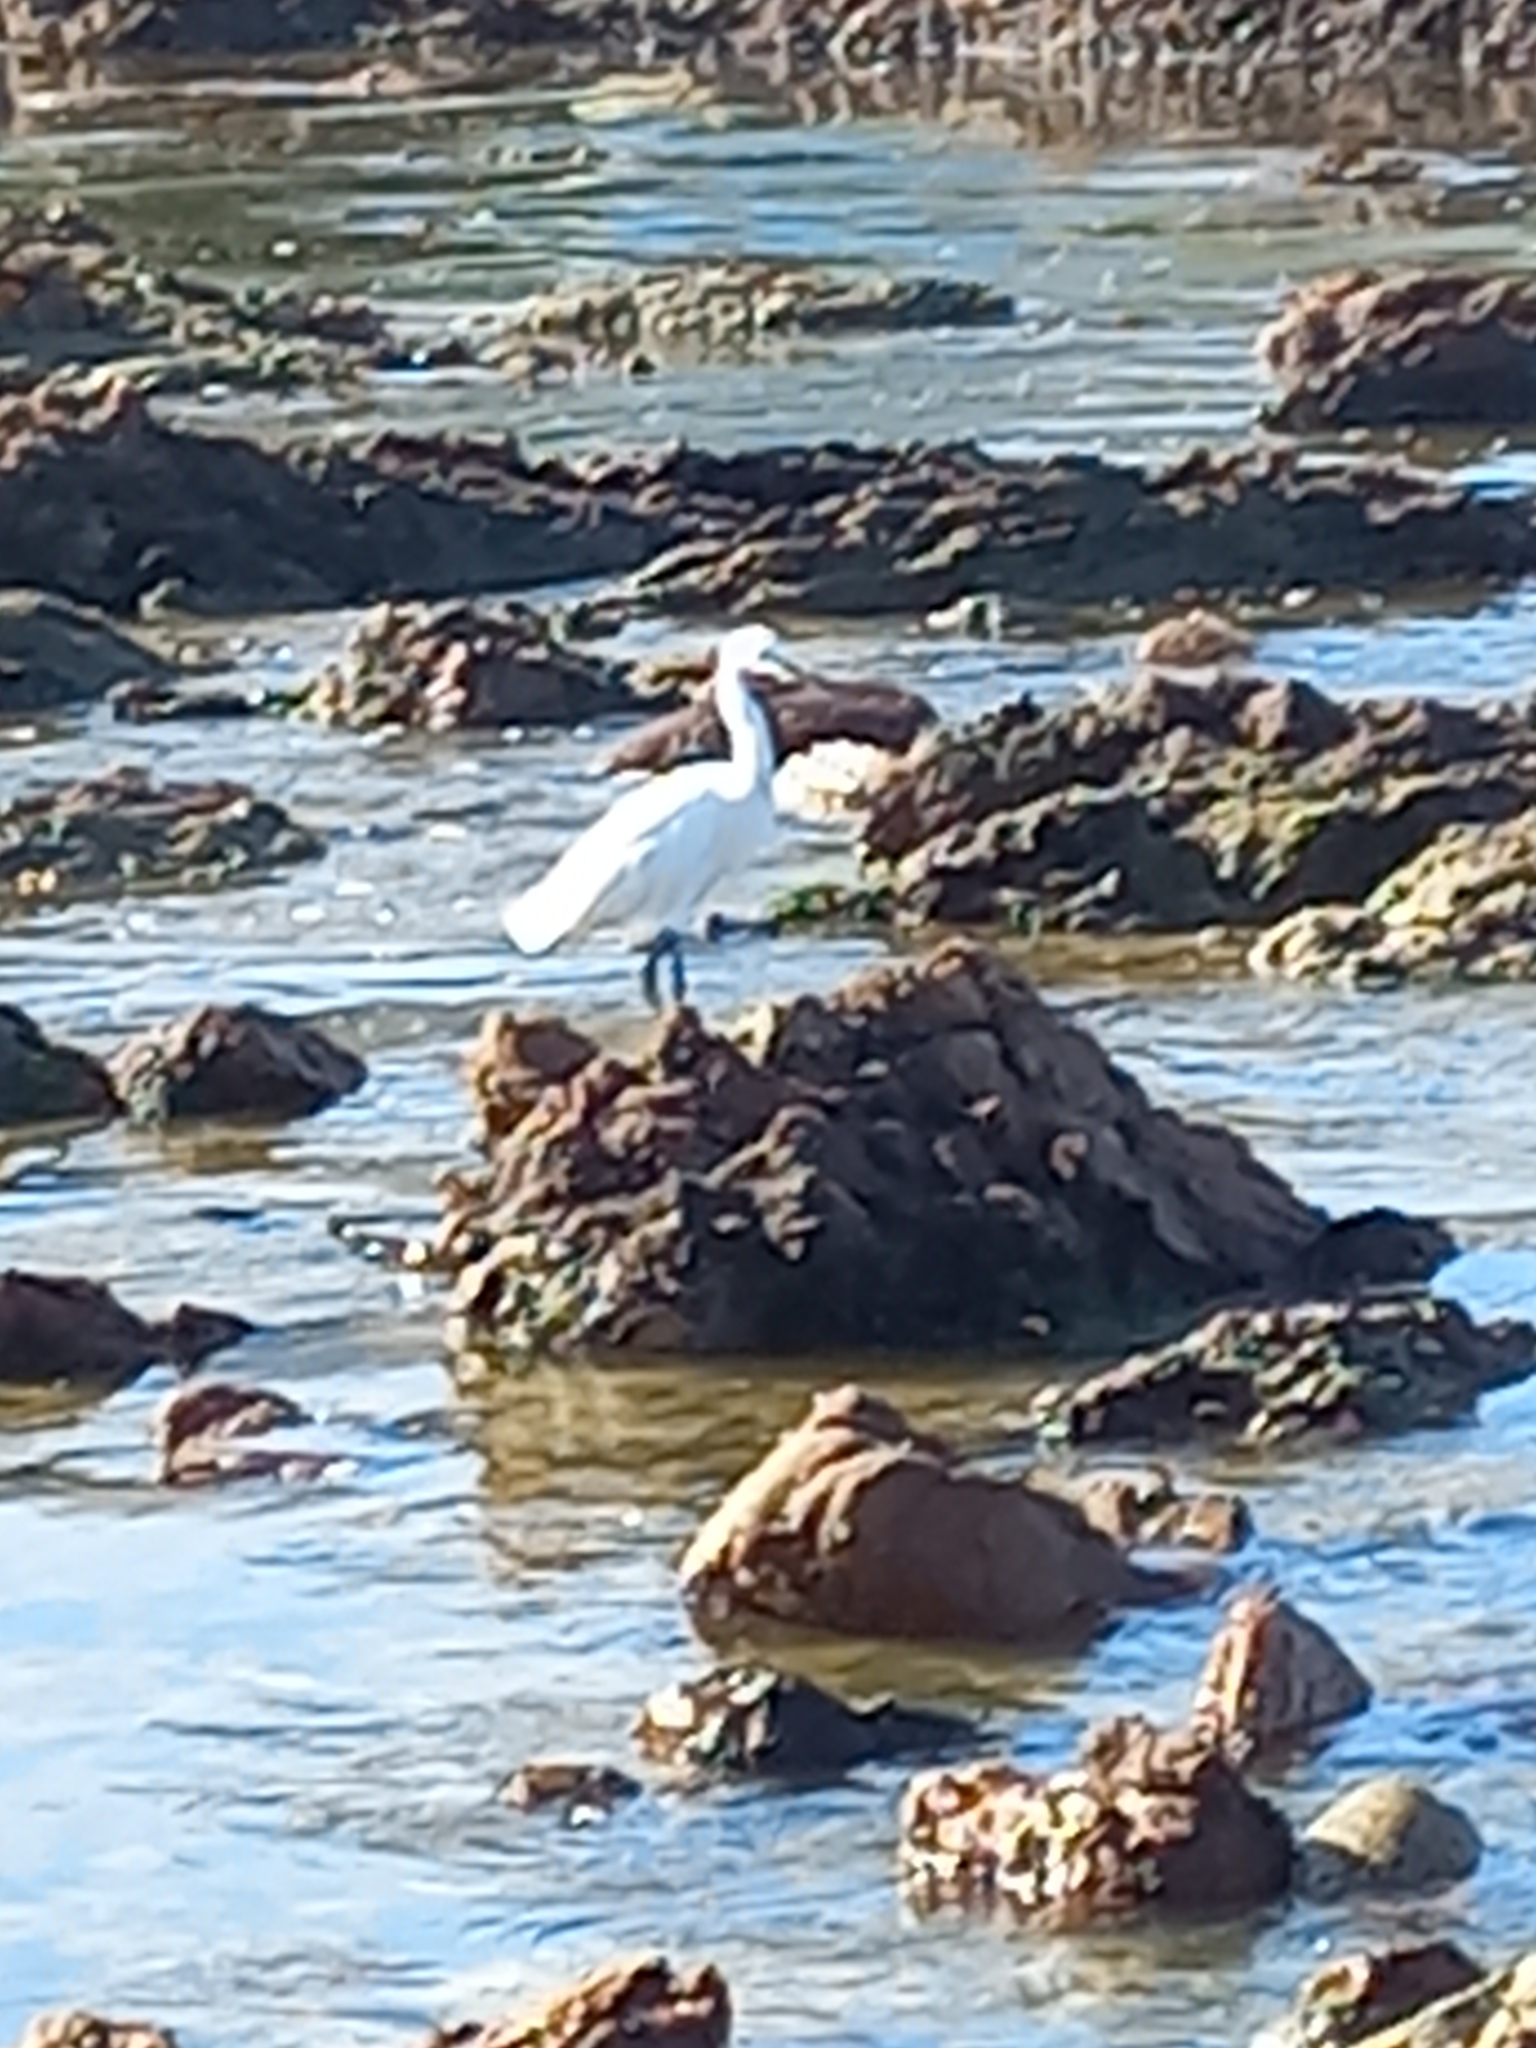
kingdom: Animalia
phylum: Chordata
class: Aves
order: Pelecaniformes
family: Ardeidae
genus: Egretta
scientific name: Egretta garzetta
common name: Little egret
